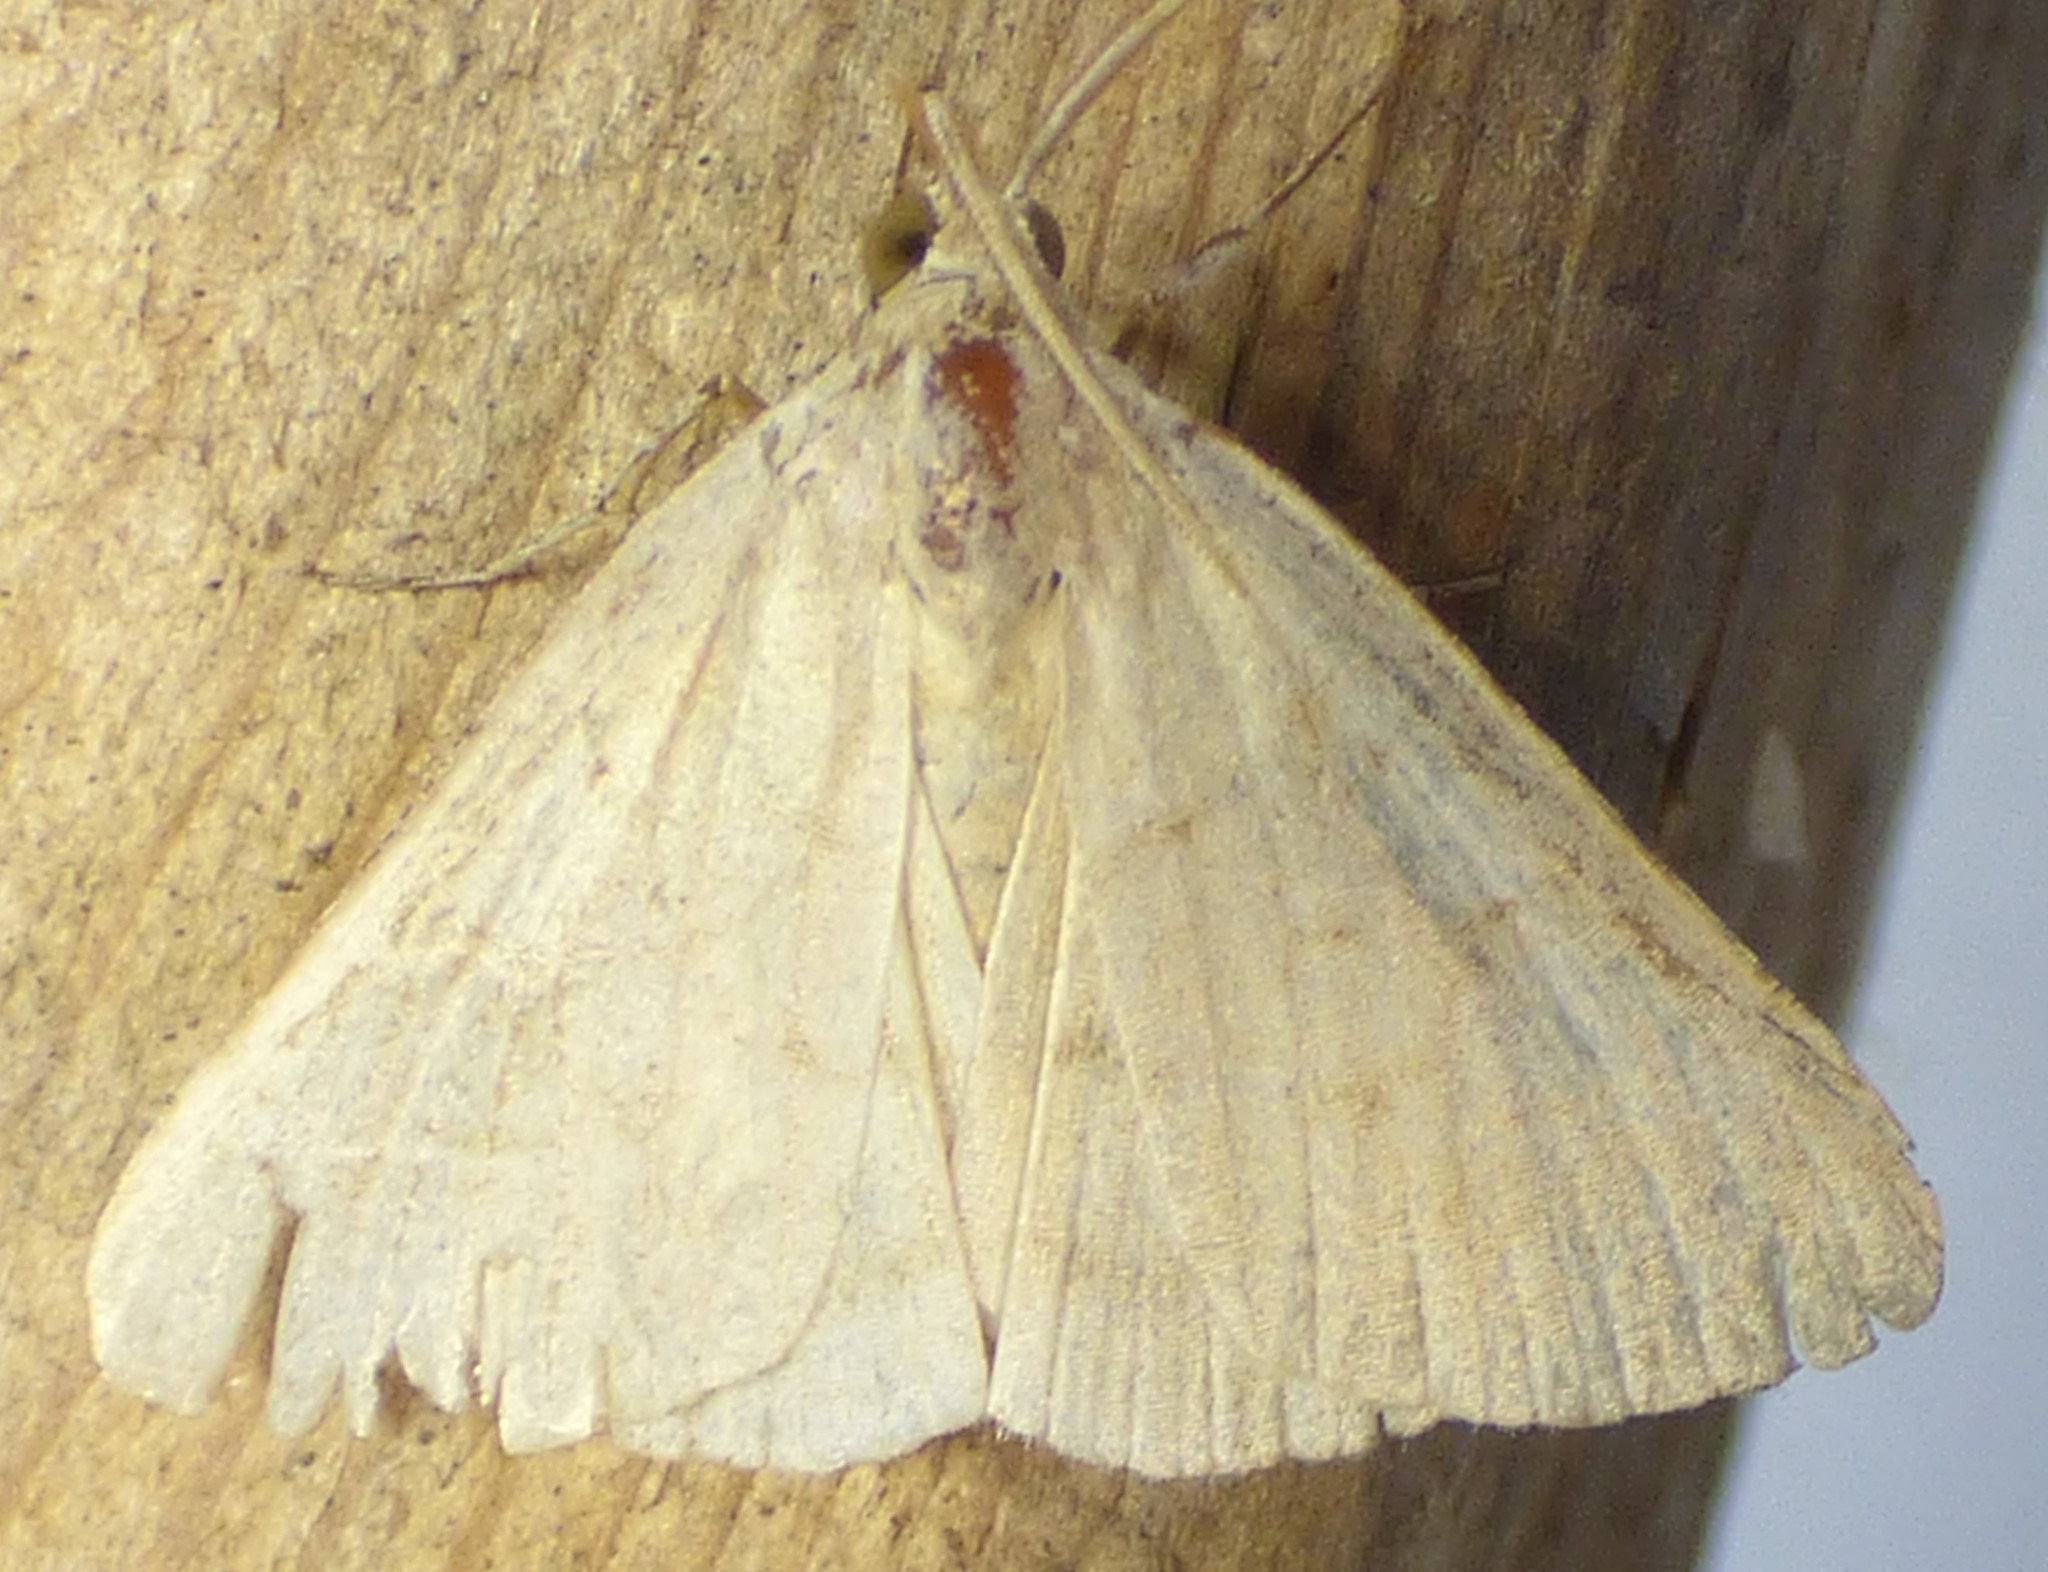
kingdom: Animalia
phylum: Arthropoda
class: Insecta
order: Lepidoptera
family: Erebidae
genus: Caenurgia
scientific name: Caenurgia chloropha
